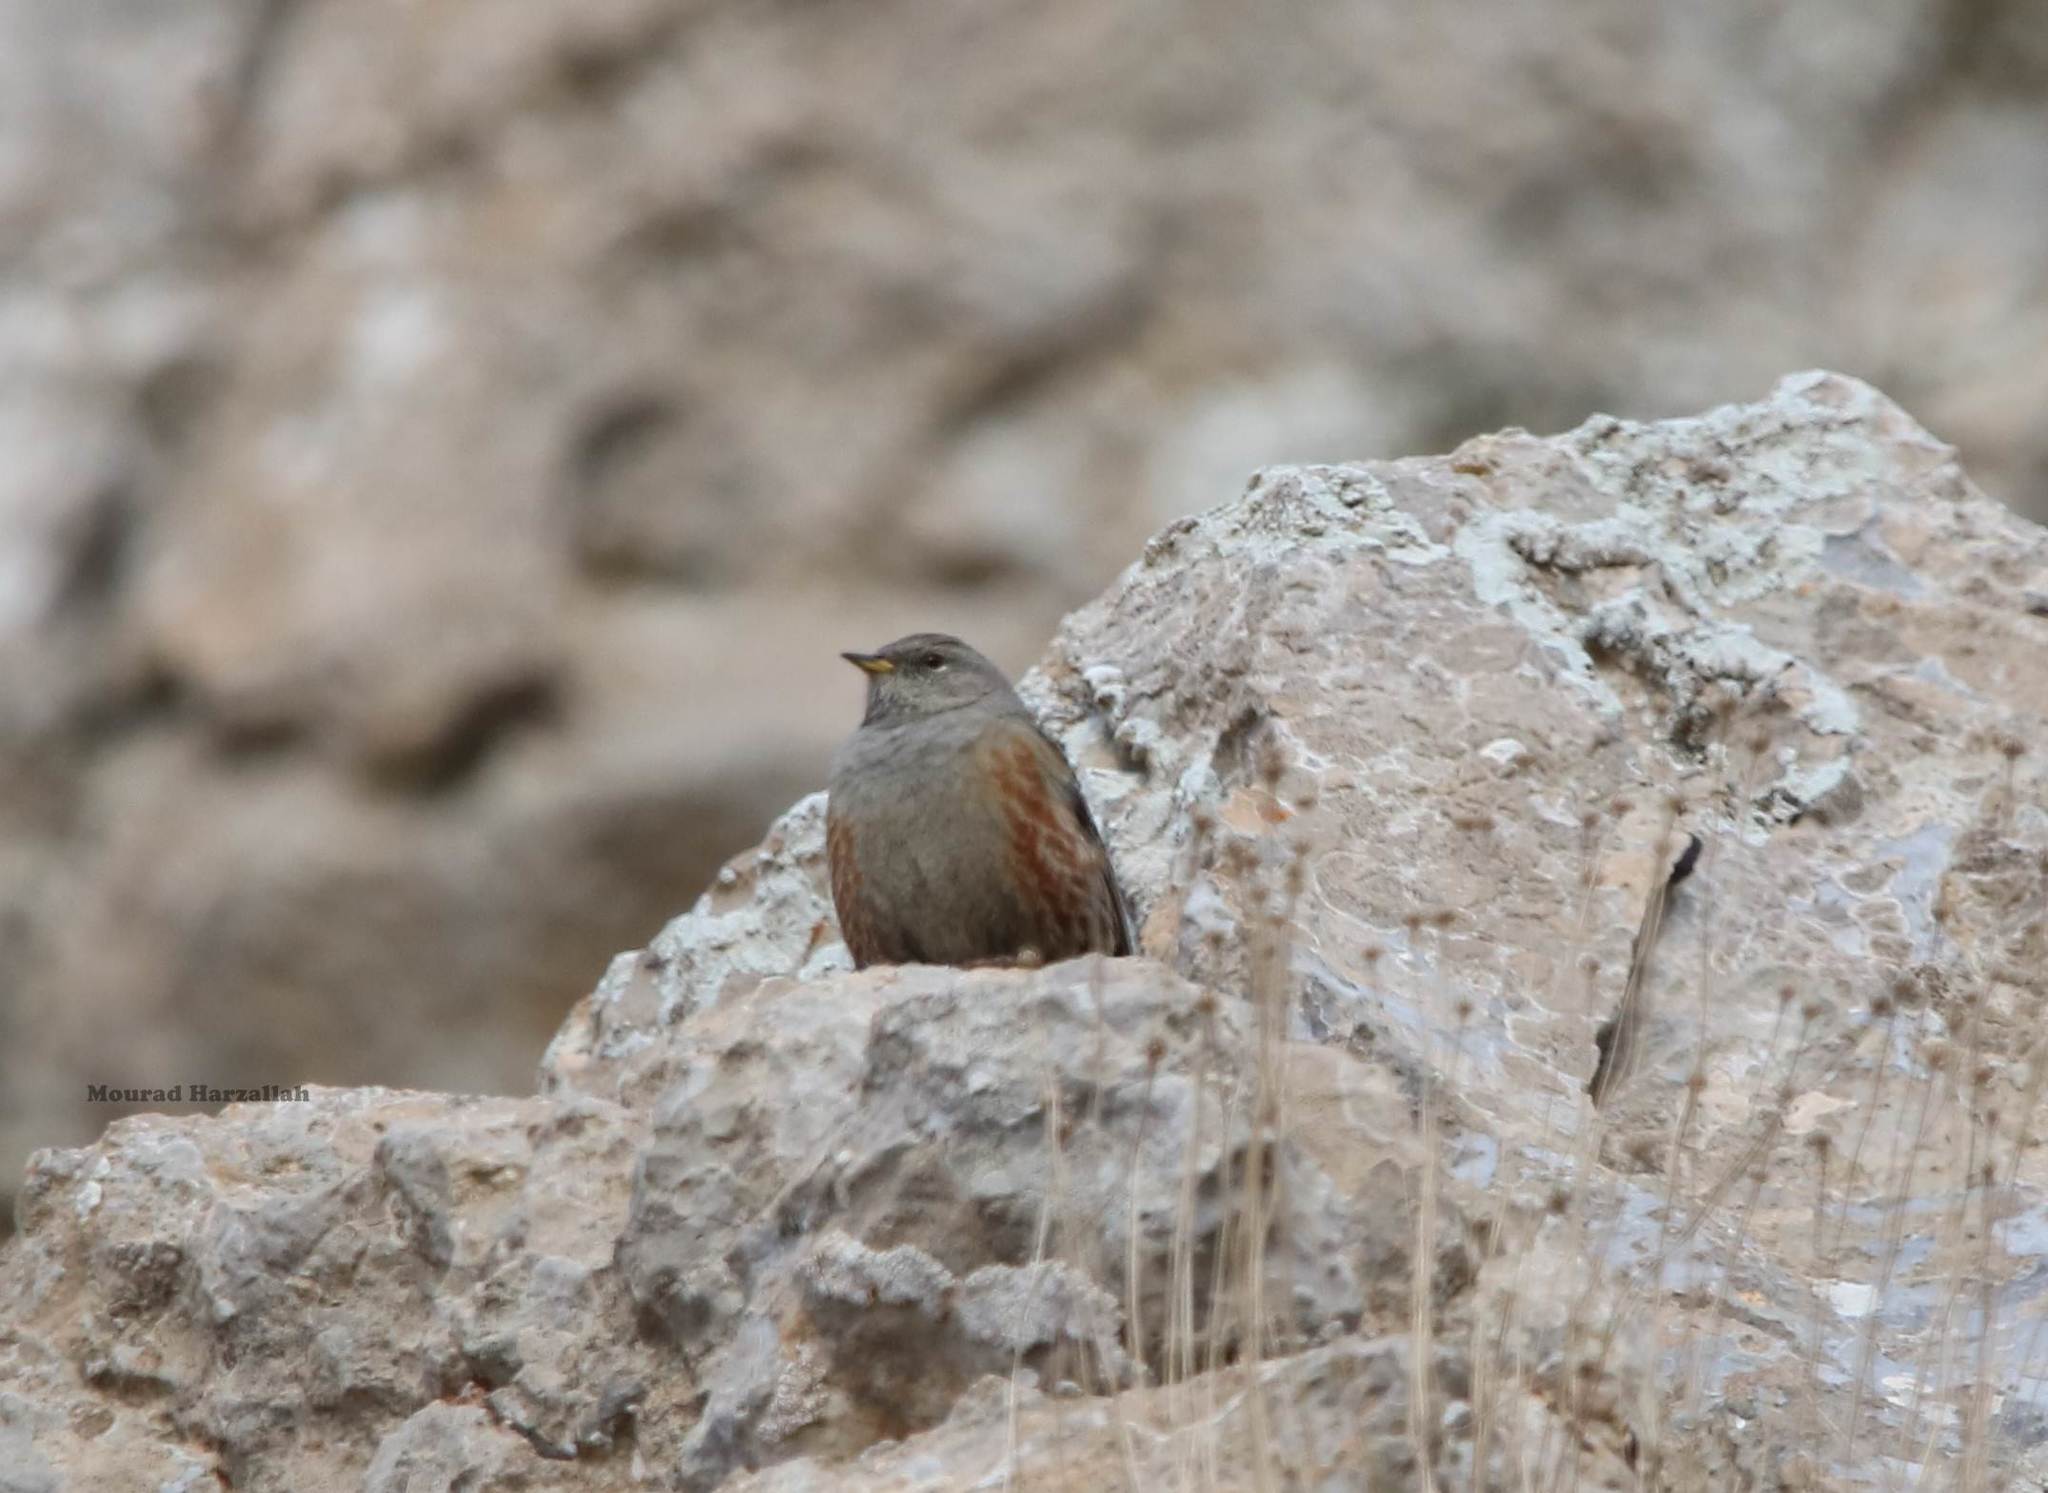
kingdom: Animalia
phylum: Chordata
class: Aves
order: Passeriformes
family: Prunellidae
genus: Prunella
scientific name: Prunella collaris
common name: Alpine accentor
